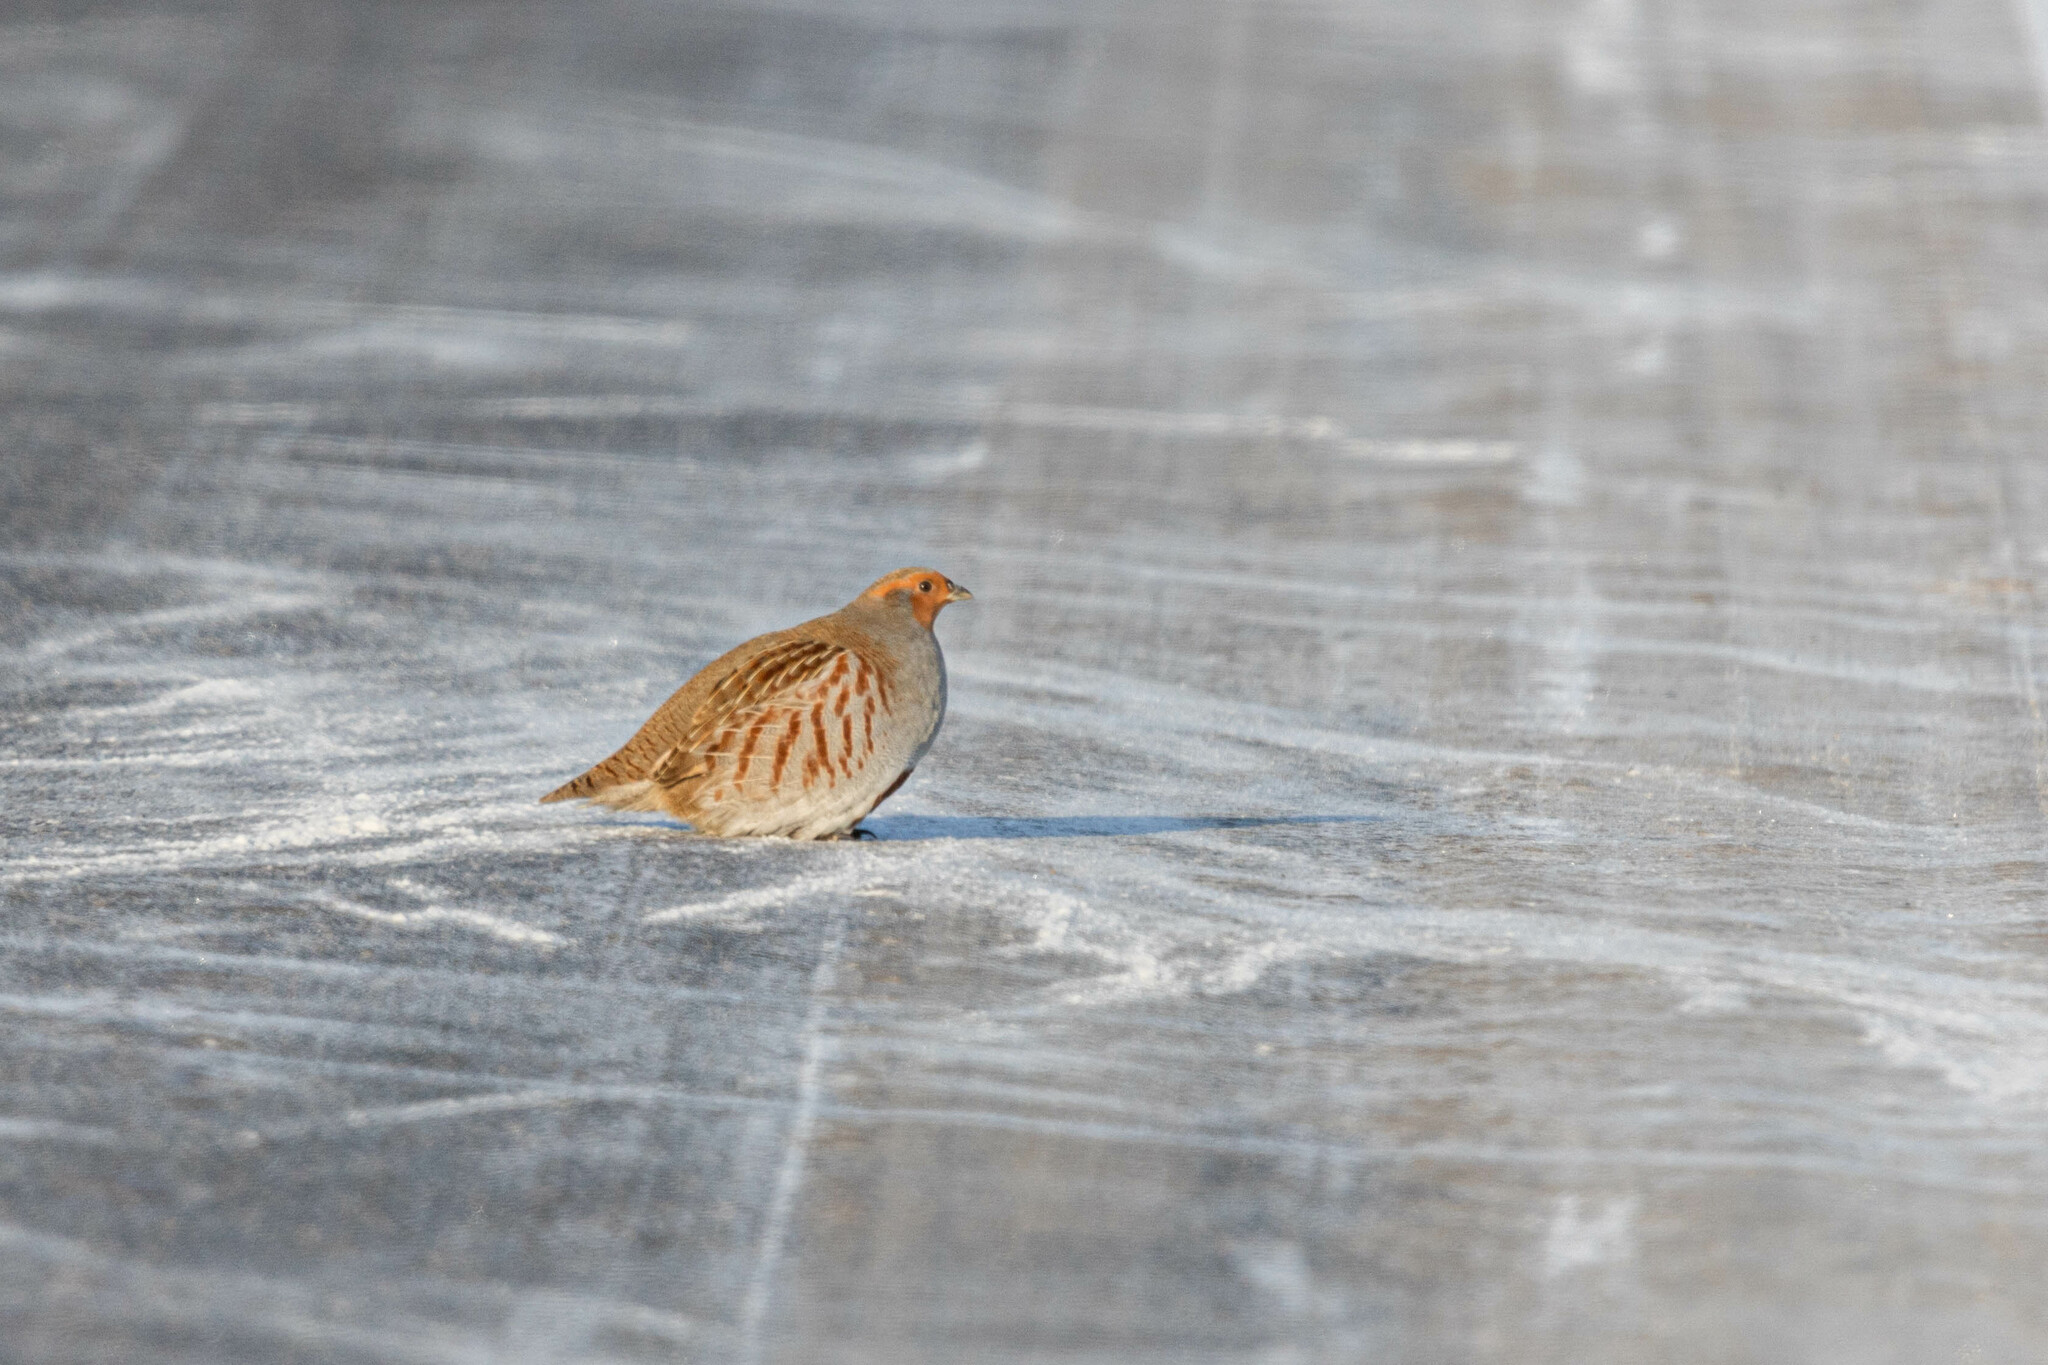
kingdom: Animalia
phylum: Chordata
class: Aves
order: Galliformes
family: Phasianidae
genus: Perdix
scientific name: Perdix perdix
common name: Grey partridge
